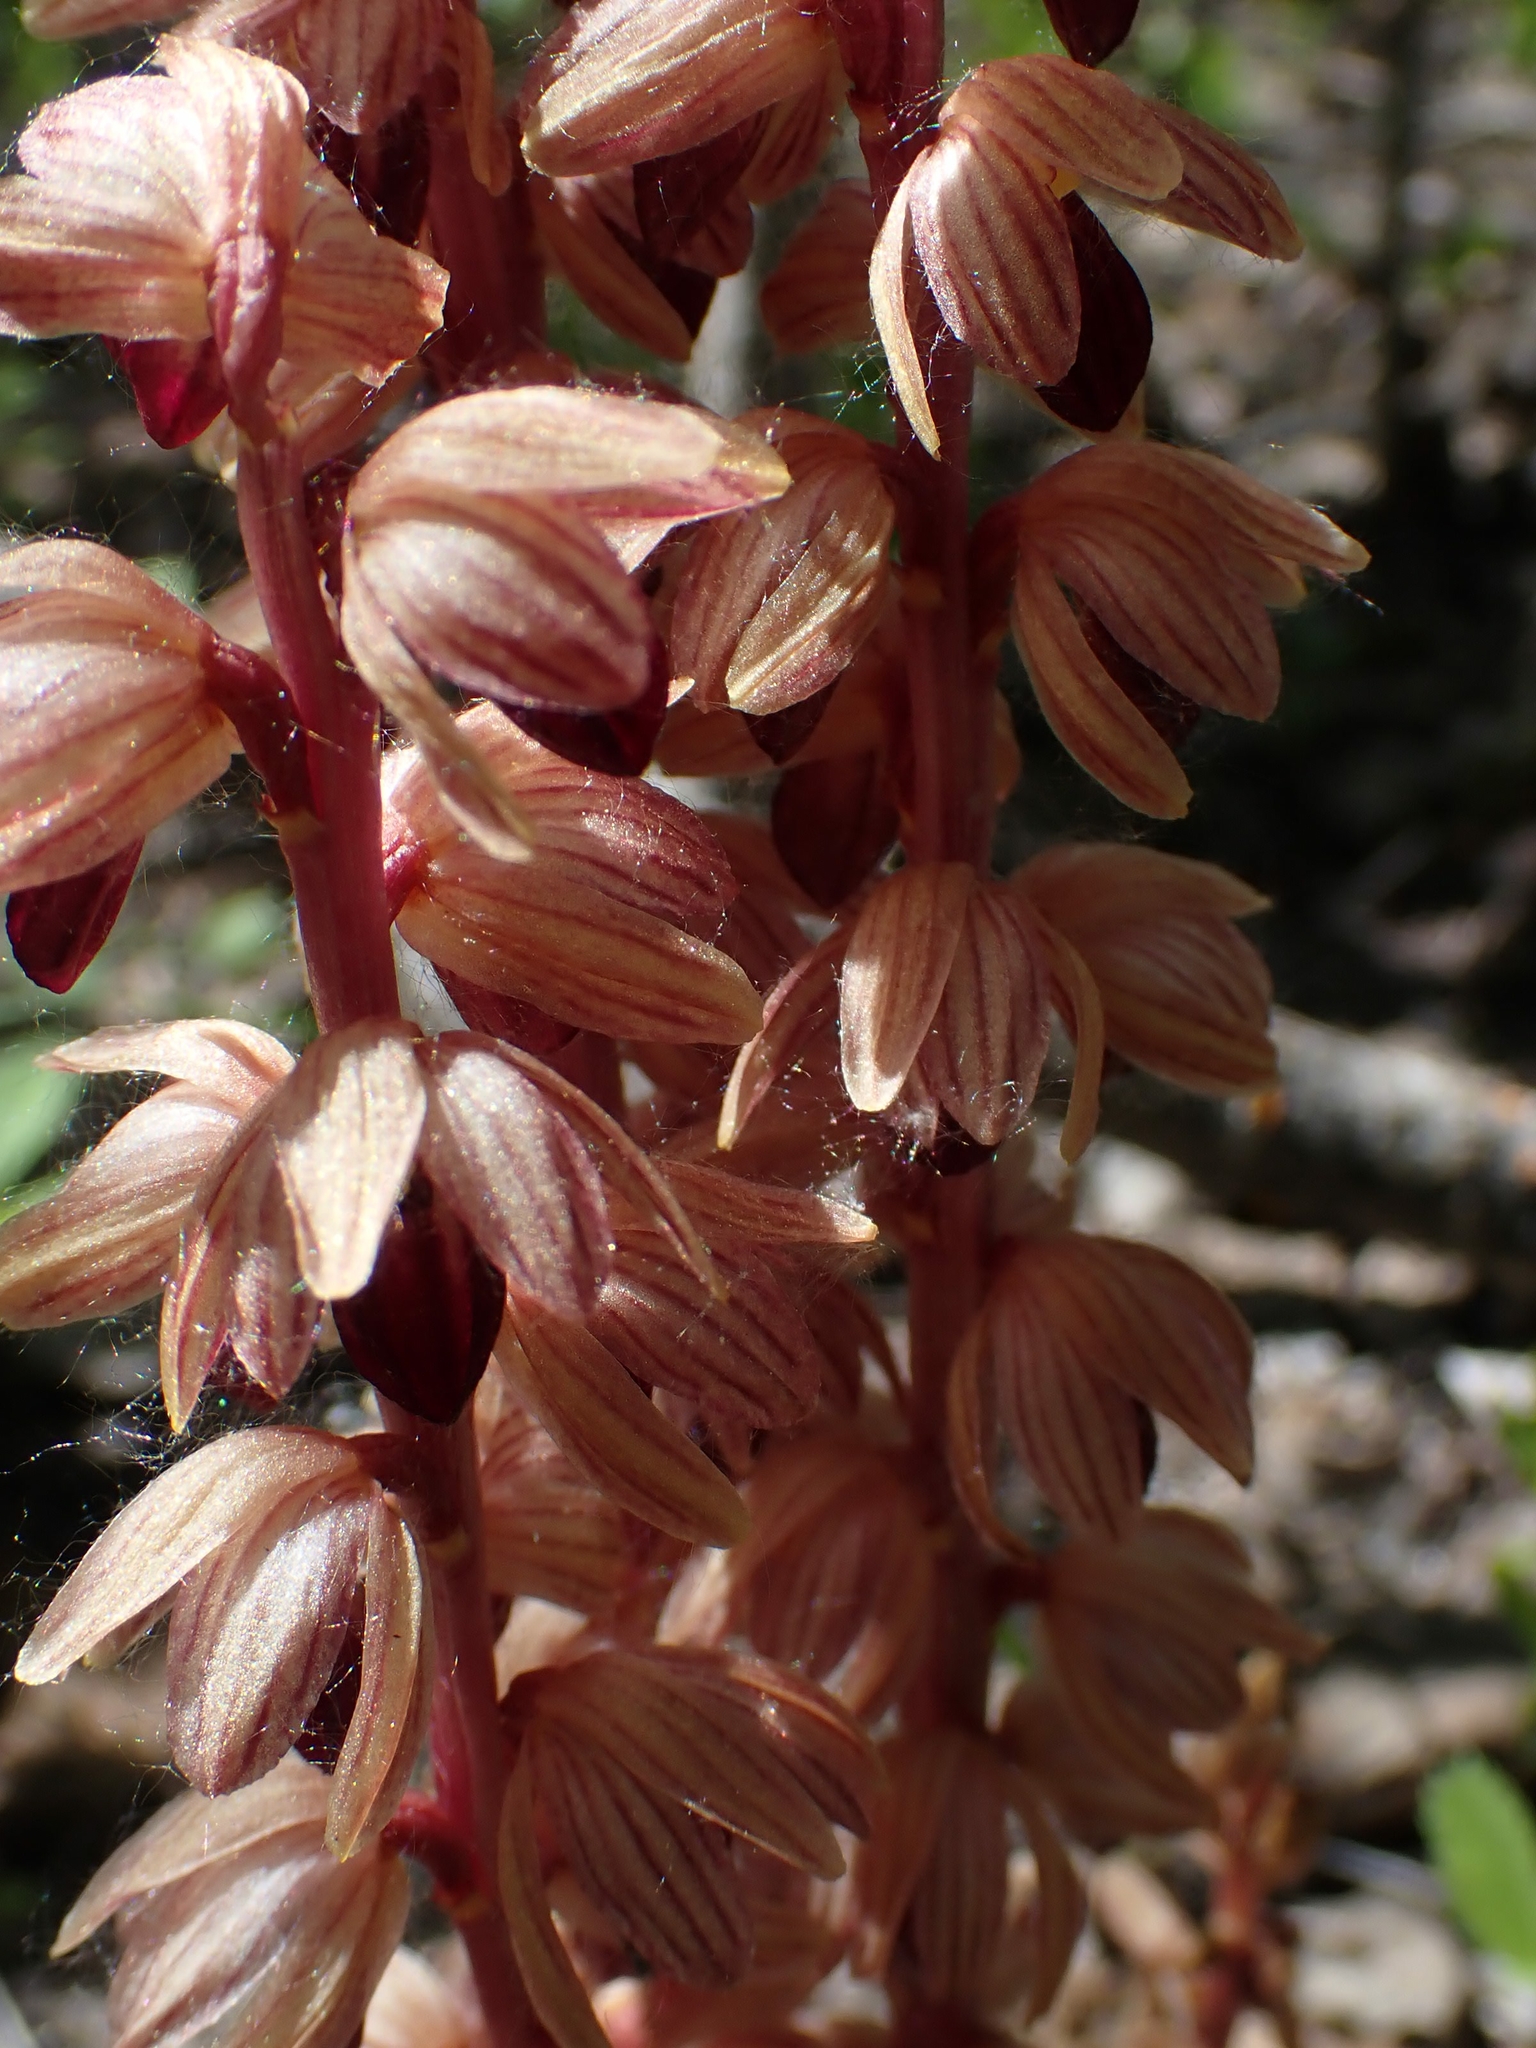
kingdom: Plantae
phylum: Tracheophyta
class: Liliopsida
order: Asparagales
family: Orchidaceae
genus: Corallorhiza
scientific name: Corallorhiza striata
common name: Hooded coralroot
